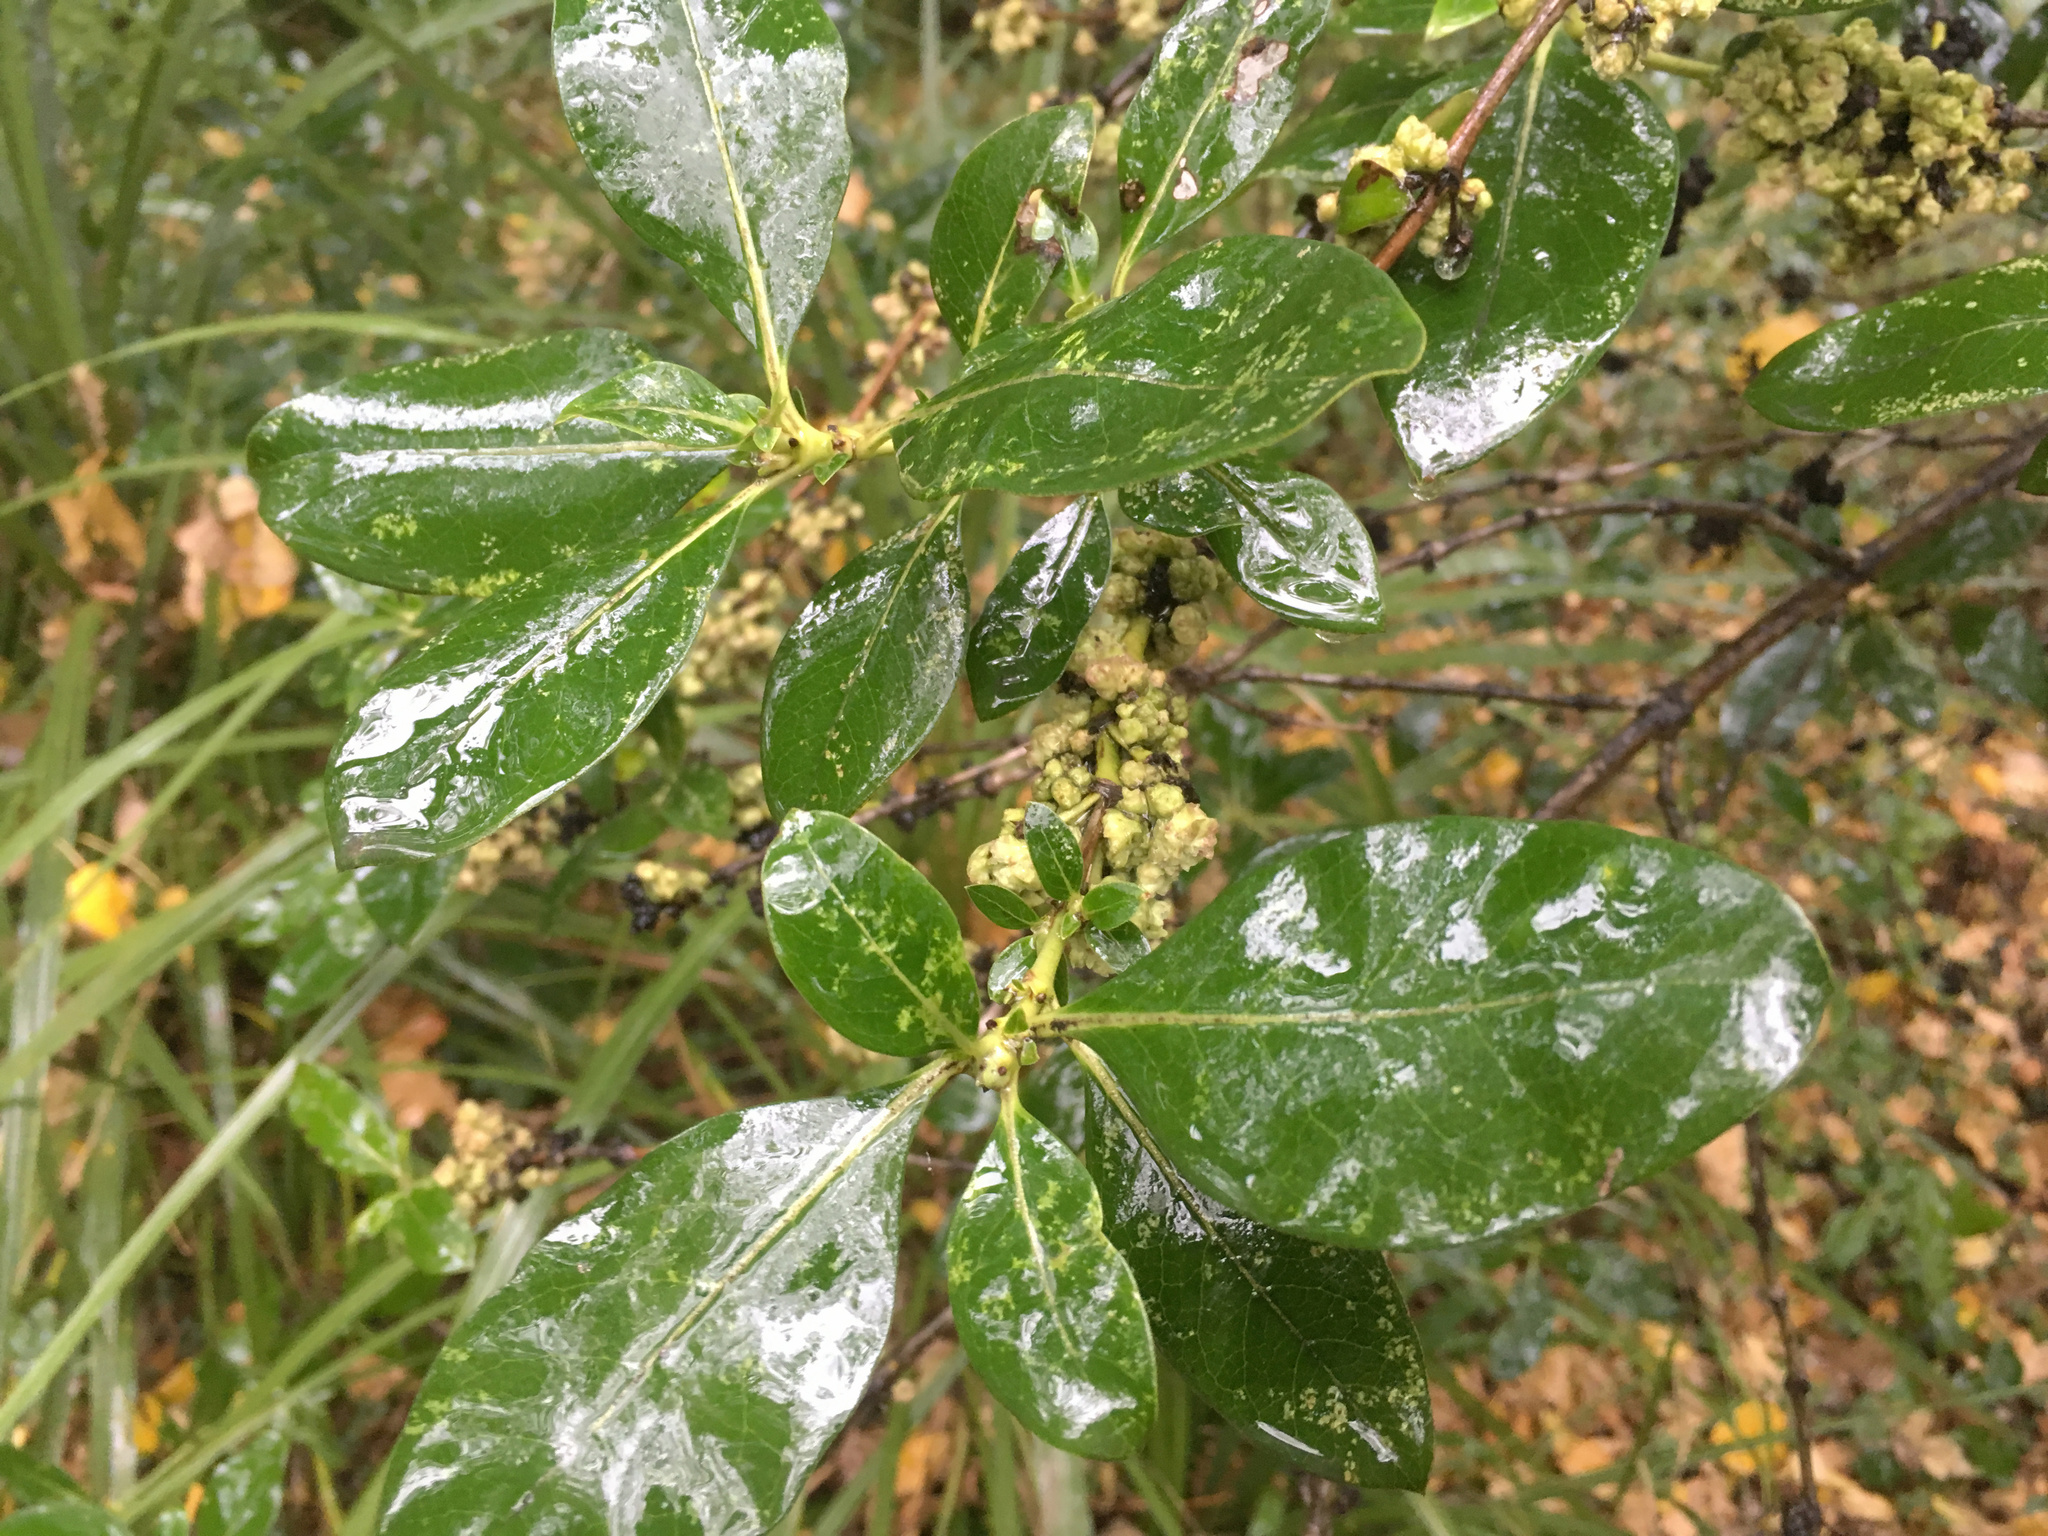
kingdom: Plantae
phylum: Tracheophyta
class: Magnoliopsida
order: Gentianales
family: Rubiaceae
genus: Coprosma
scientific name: Coprosma robusta
